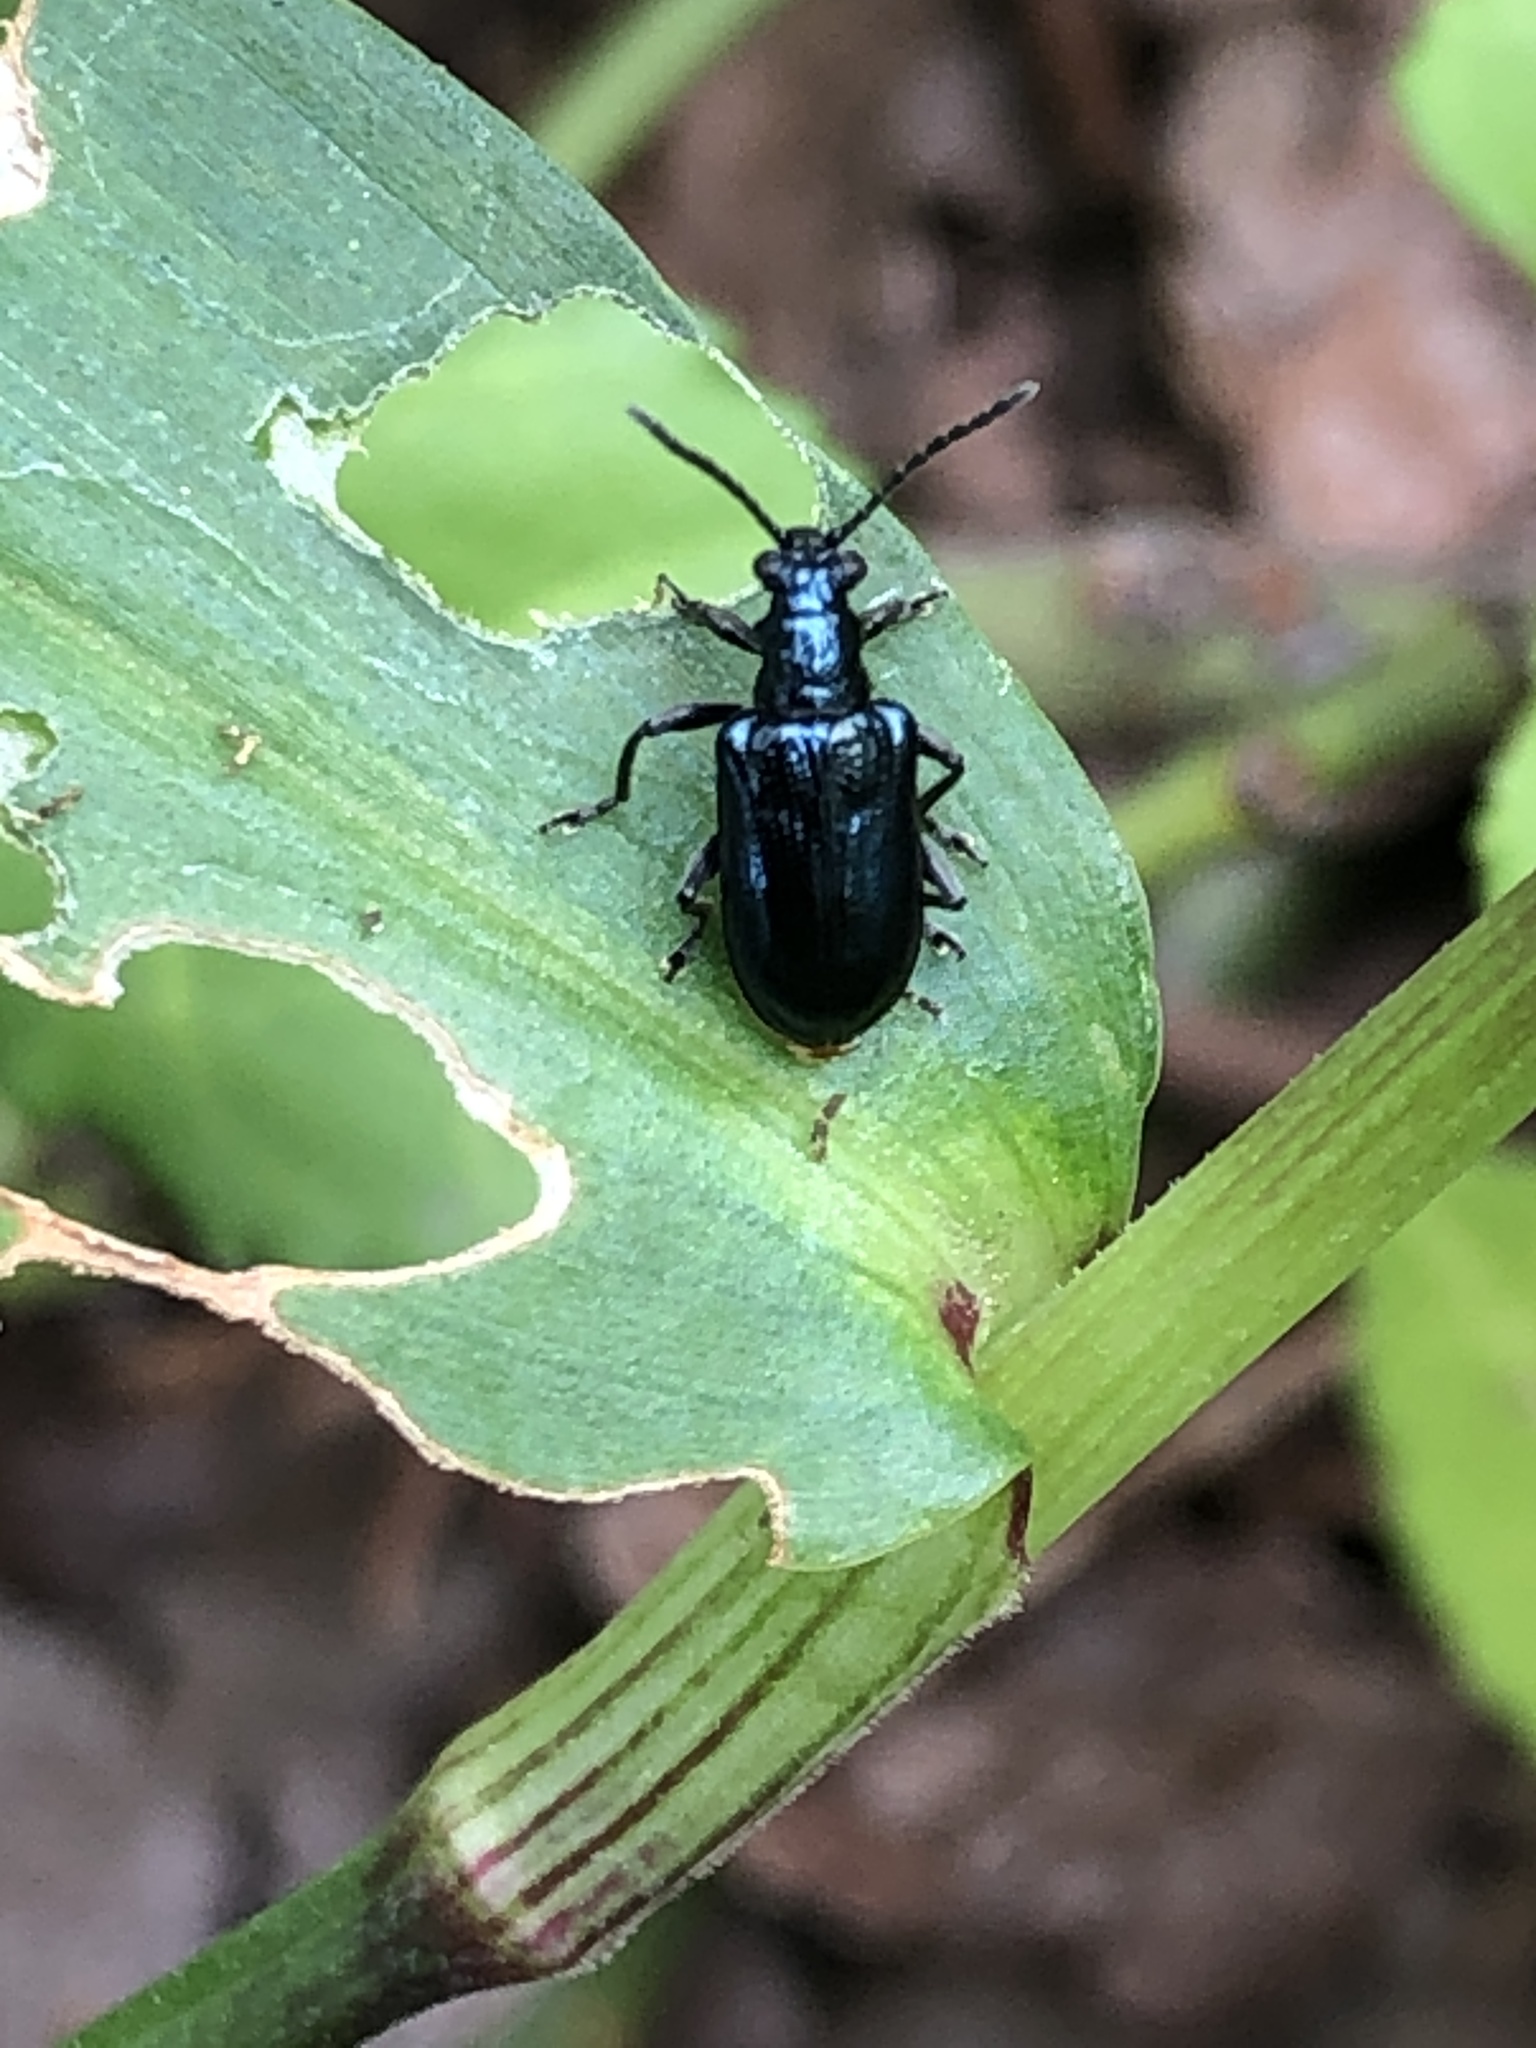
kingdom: Animalia
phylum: Arthropoda
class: Insecta
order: Coleoptera
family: Chrysomelidae
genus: Lema
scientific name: Lema concinnipennis
